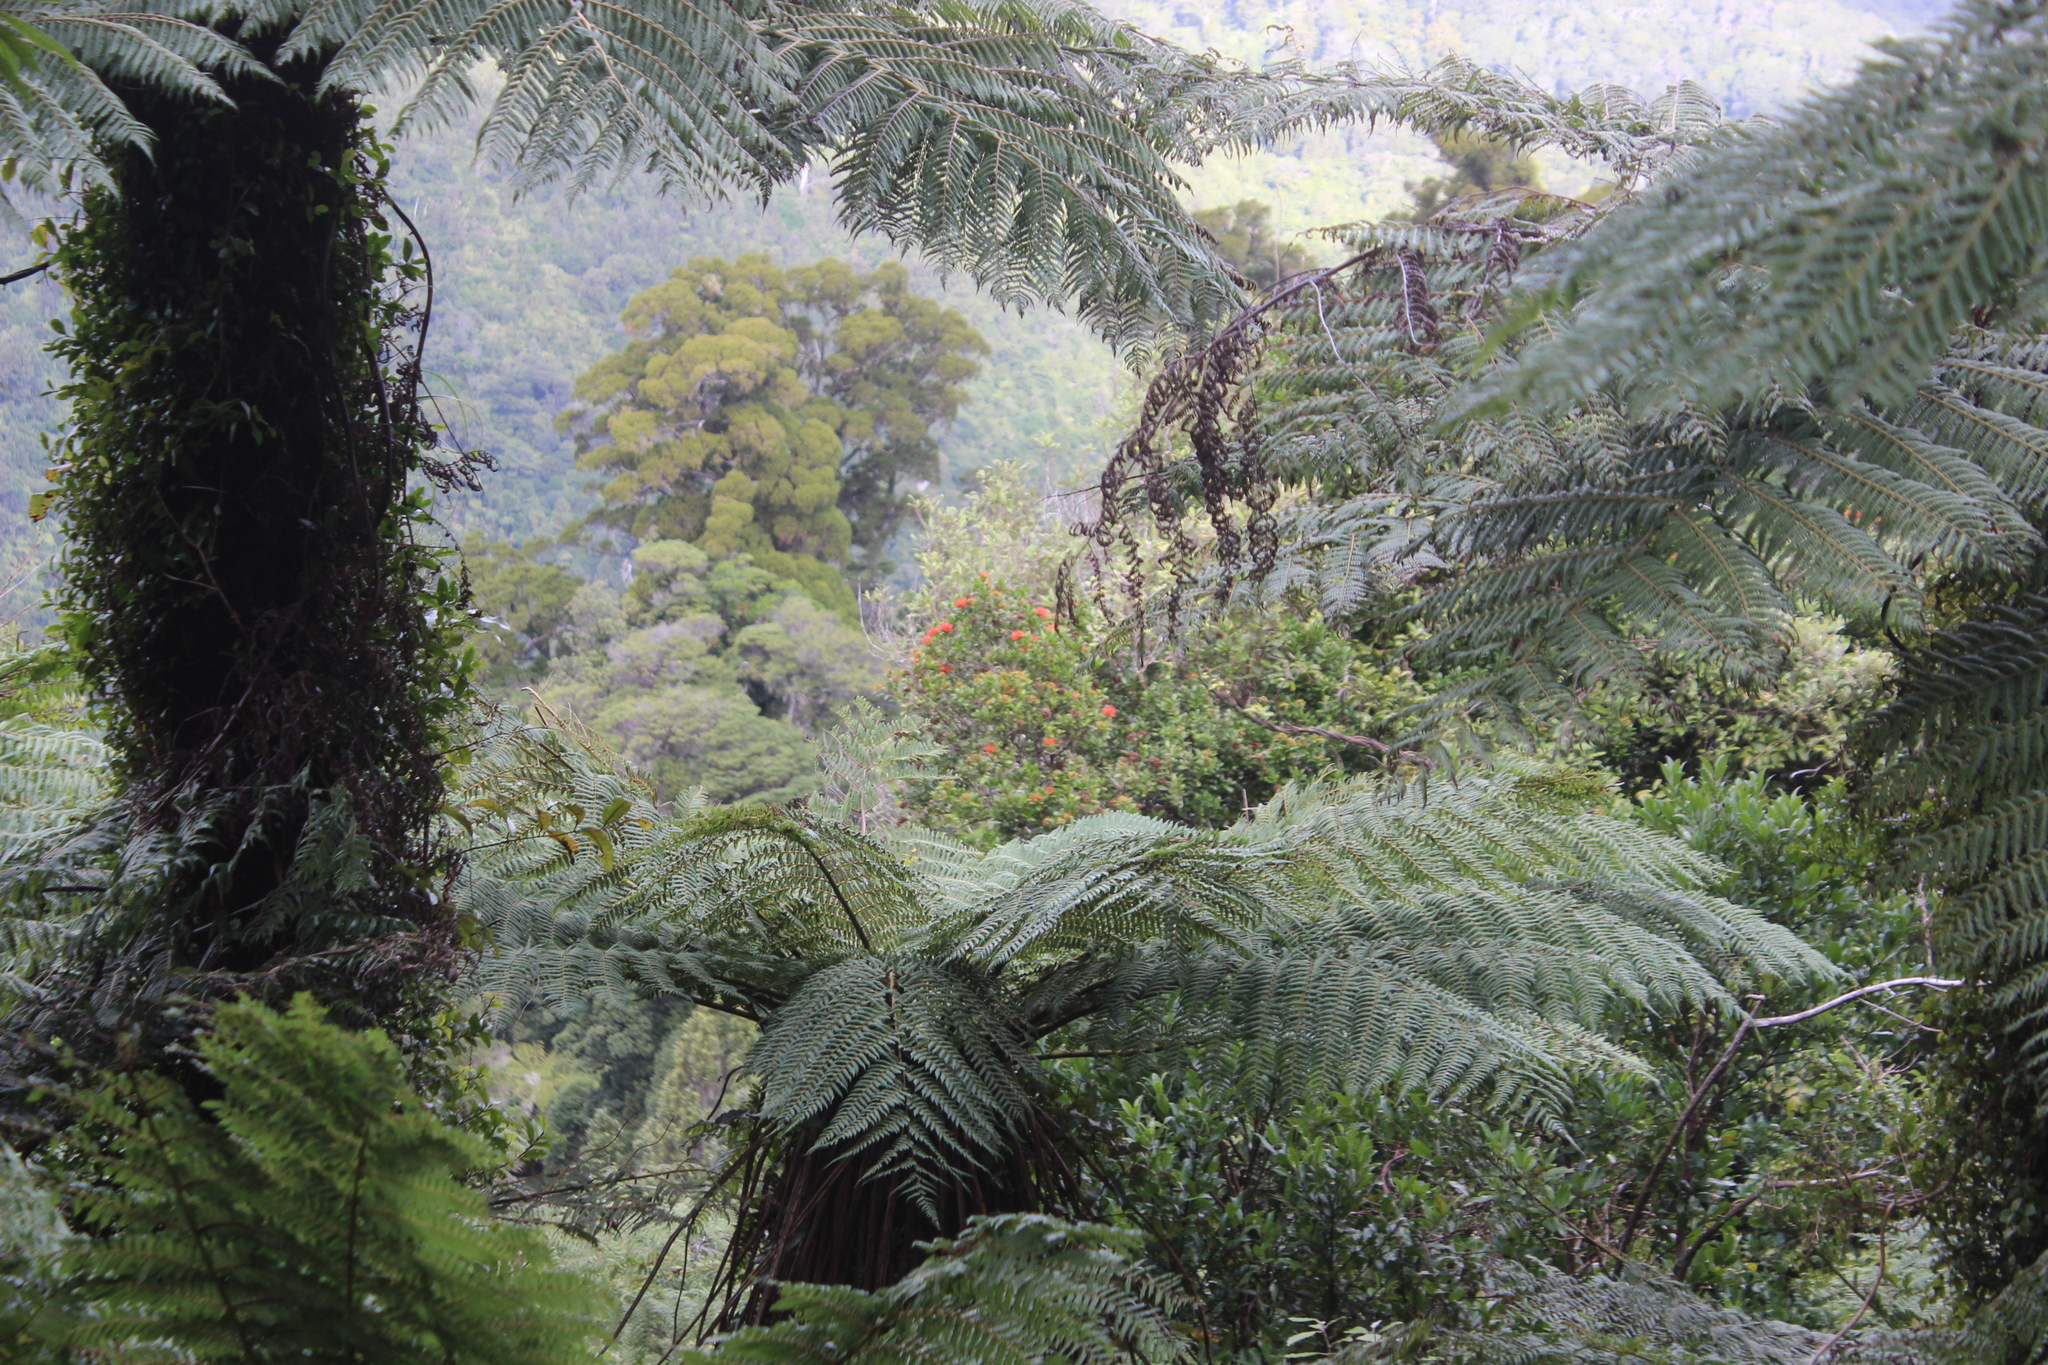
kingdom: Plantae
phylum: Tracheophyta
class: Magnoliopsida
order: Myrtales
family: Myrtaceae
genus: Metrosideros
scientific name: Metrosideros fulgens
